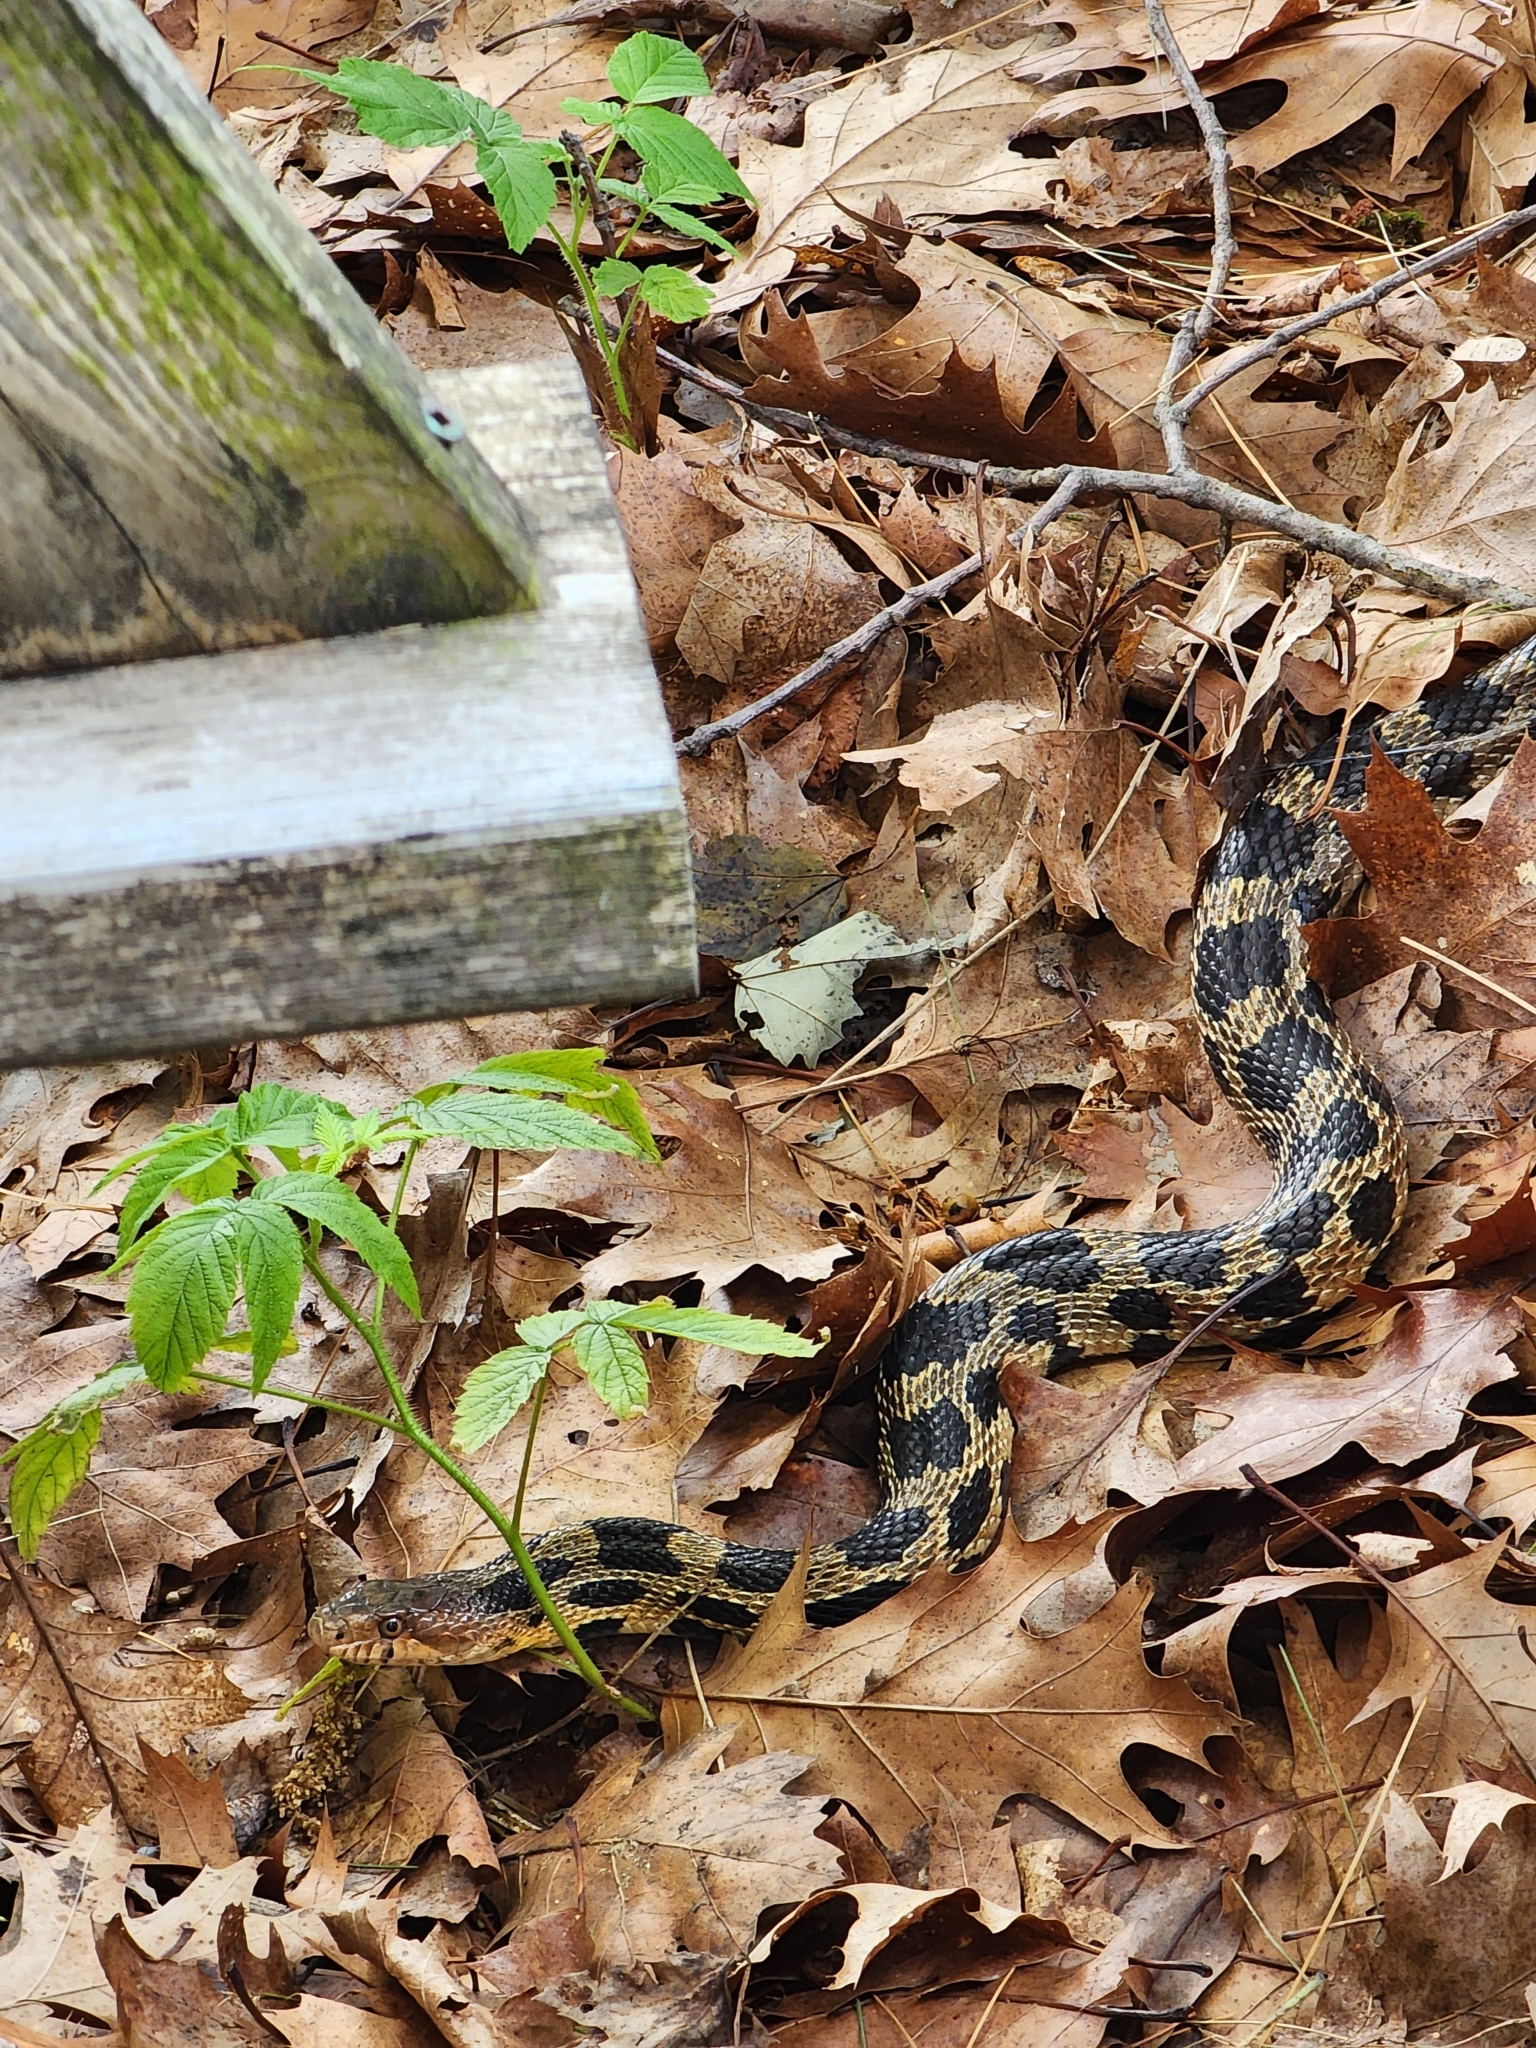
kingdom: Animalia
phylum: Chordata
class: Squamata
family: Colubridae
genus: Pantherophis
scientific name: Pantherophis vulpinus
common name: Eastern fox snake
